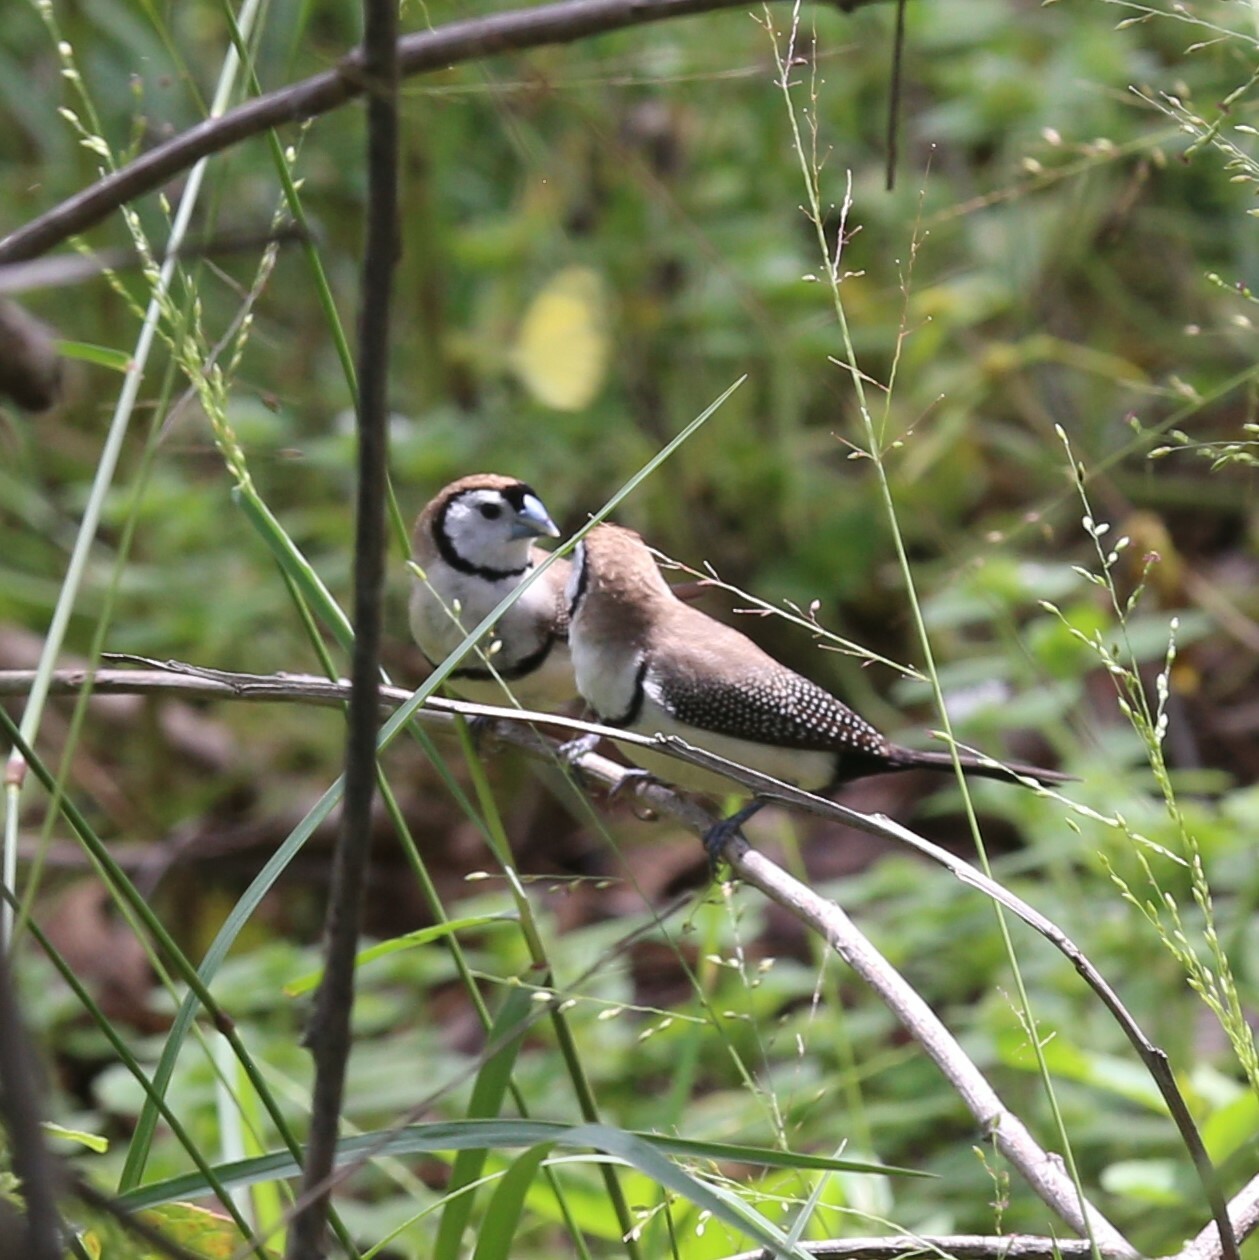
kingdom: Animalia
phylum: Chordata
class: Aves
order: Passeriformes
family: Estrildidae
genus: Taeniopygia
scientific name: Taeniopygia bichenovii
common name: Double-barred finch
